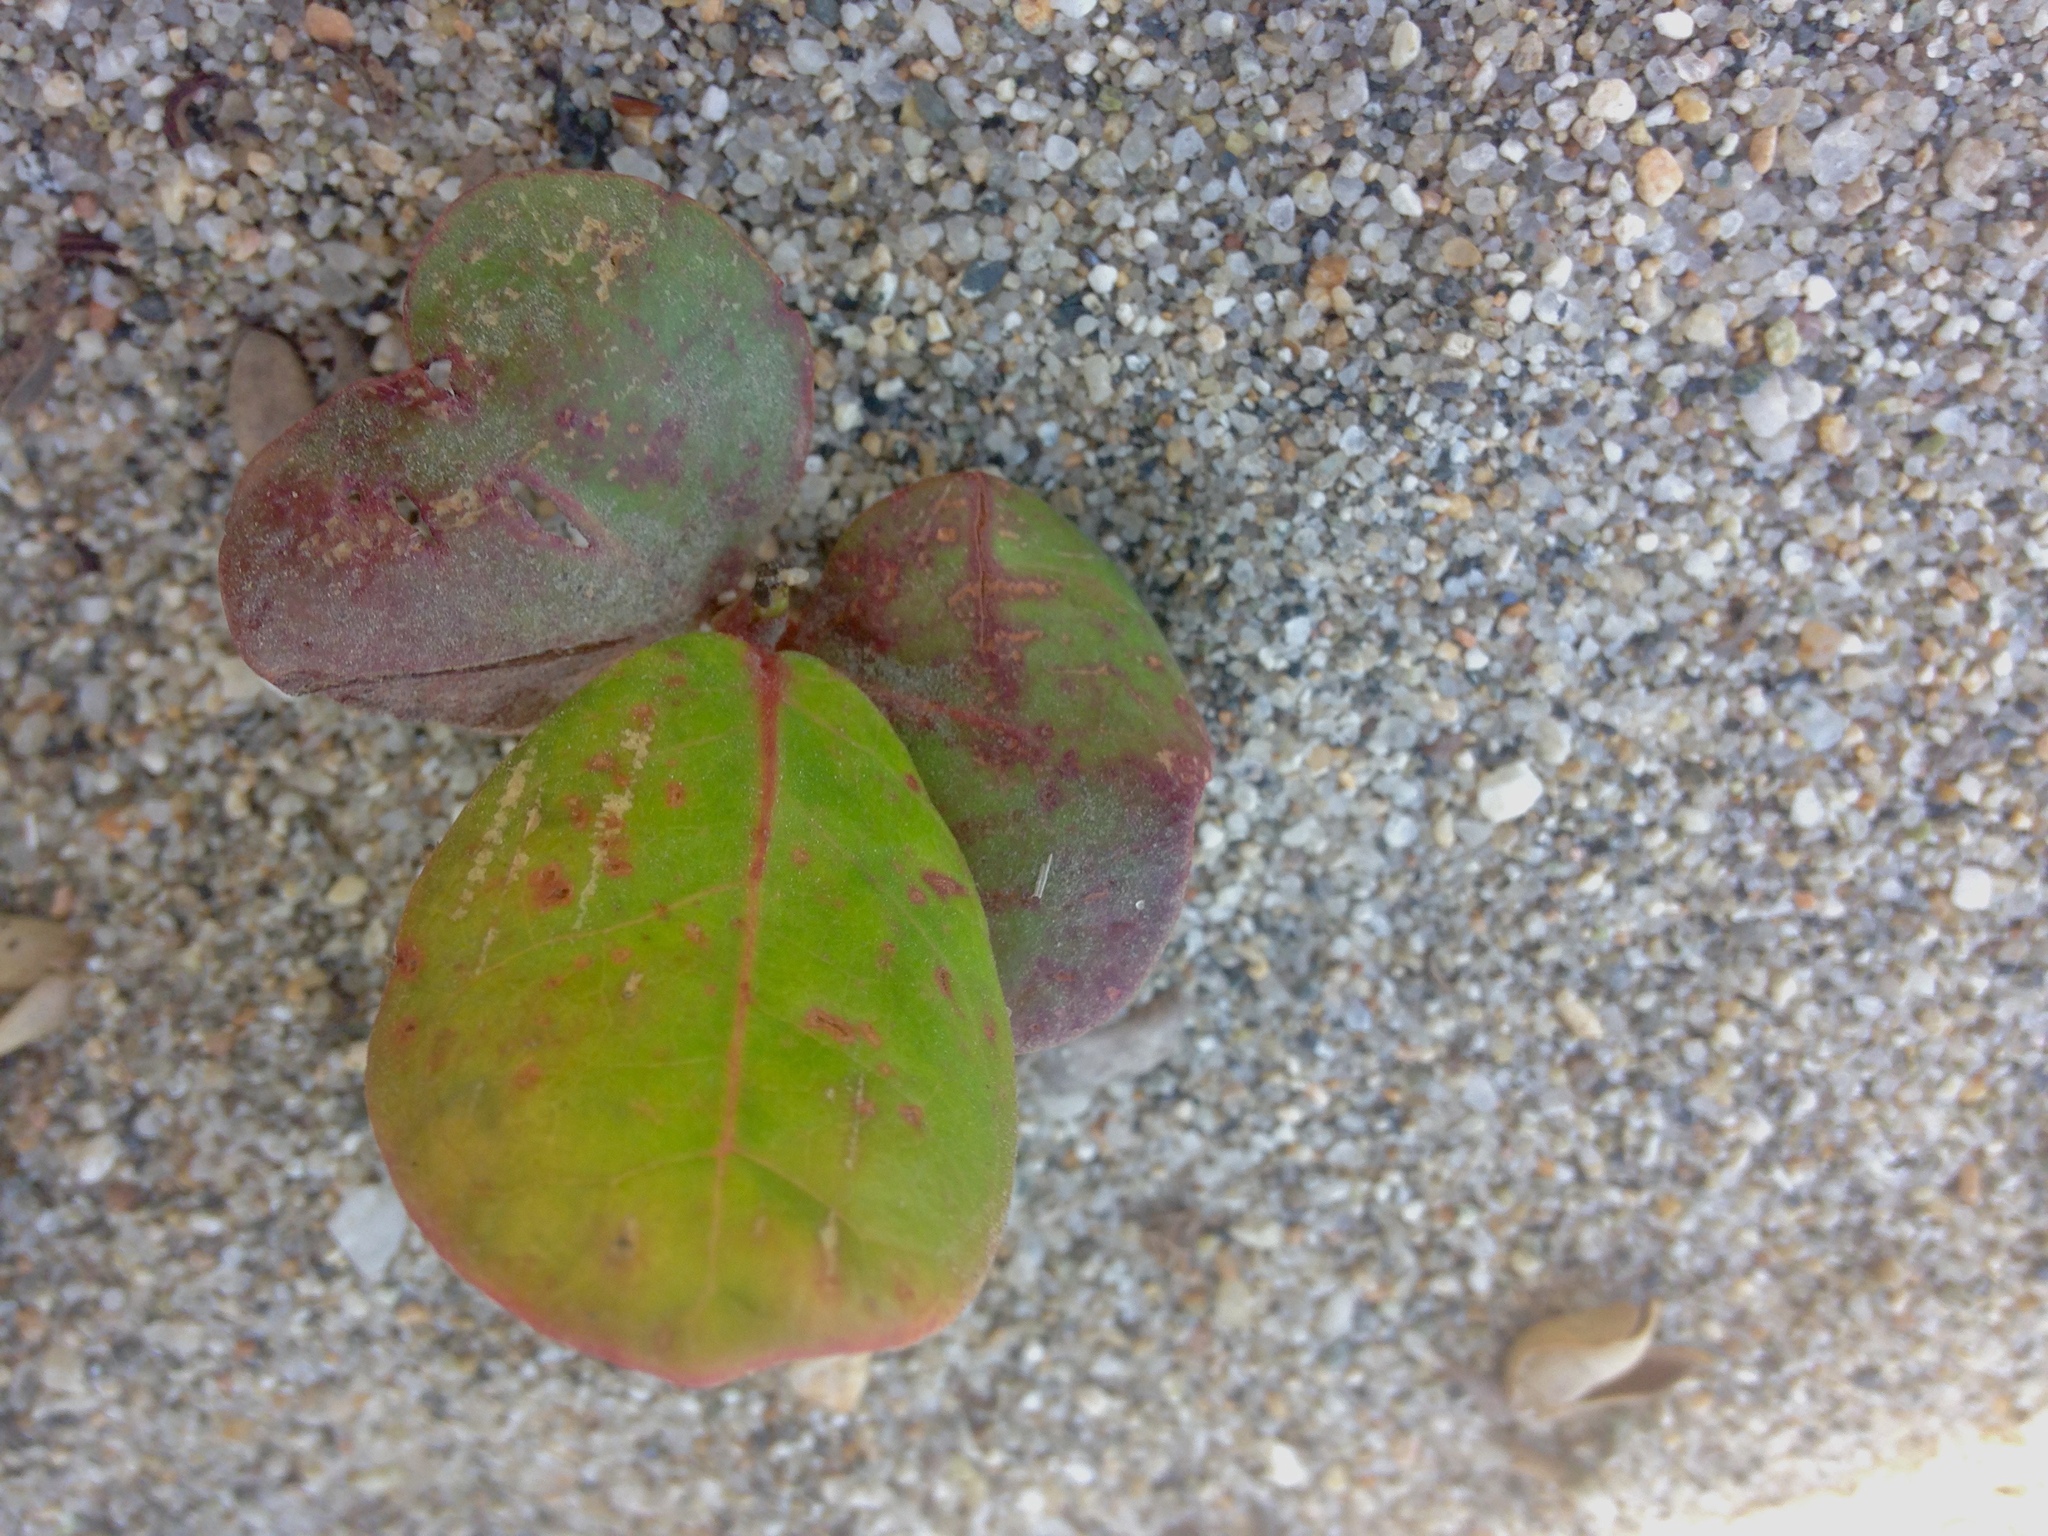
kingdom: Plantae
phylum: Tracheophyta
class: Magnoliopsida
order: Caryophyllales
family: Polygonaceae
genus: Coccoloba
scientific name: Coccoloba uvifera
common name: Seagrape
